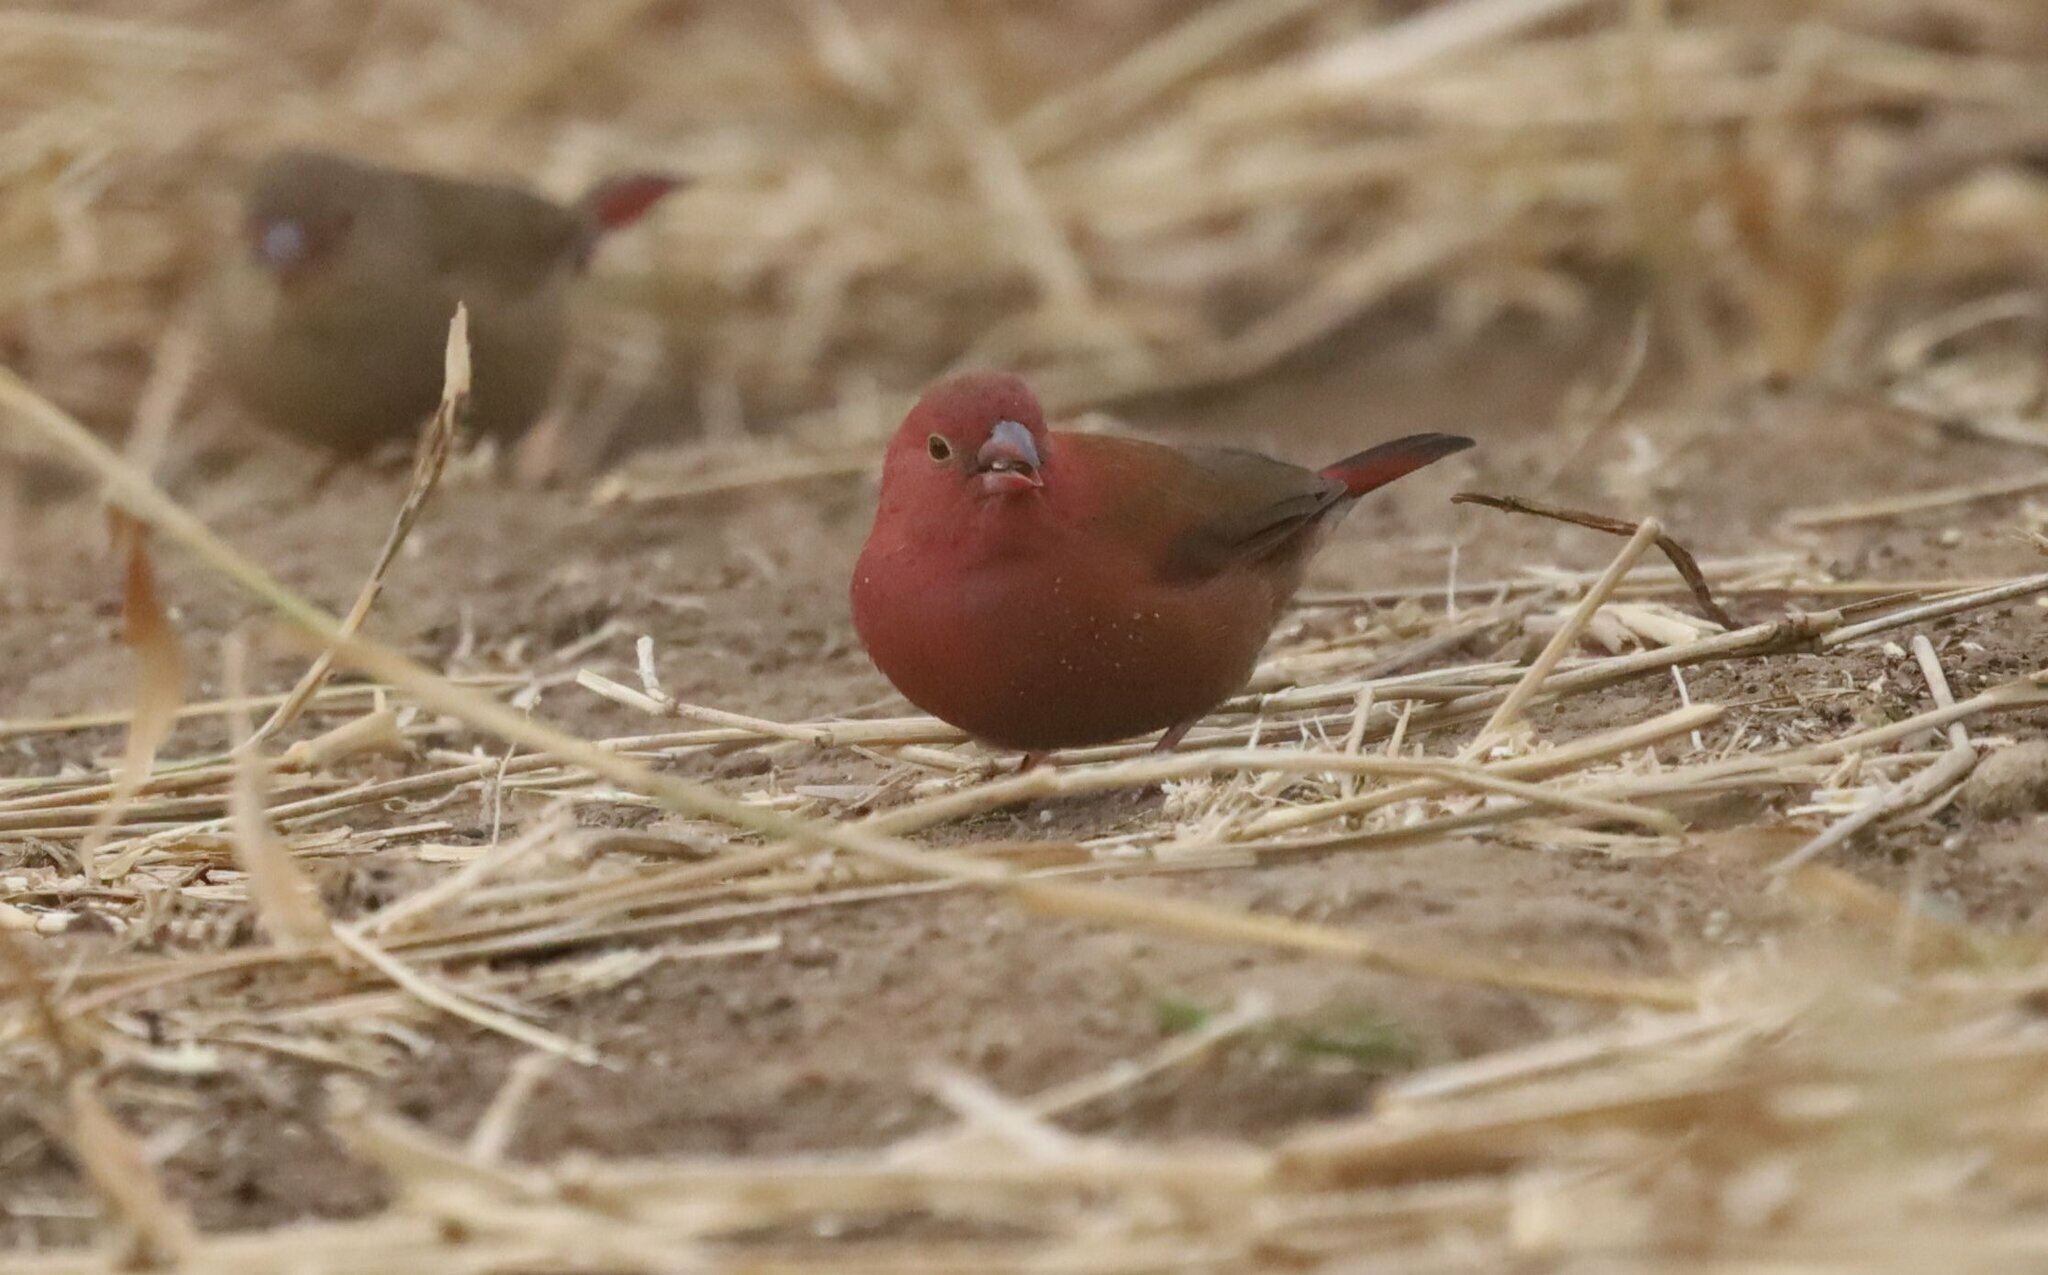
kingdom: Animalia
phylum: Chordata
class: Aves
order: Passeriformes
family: Estrildidae
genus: Lagonosticta
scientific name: Lagonosticta senegala
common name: Red-billed firefinch
